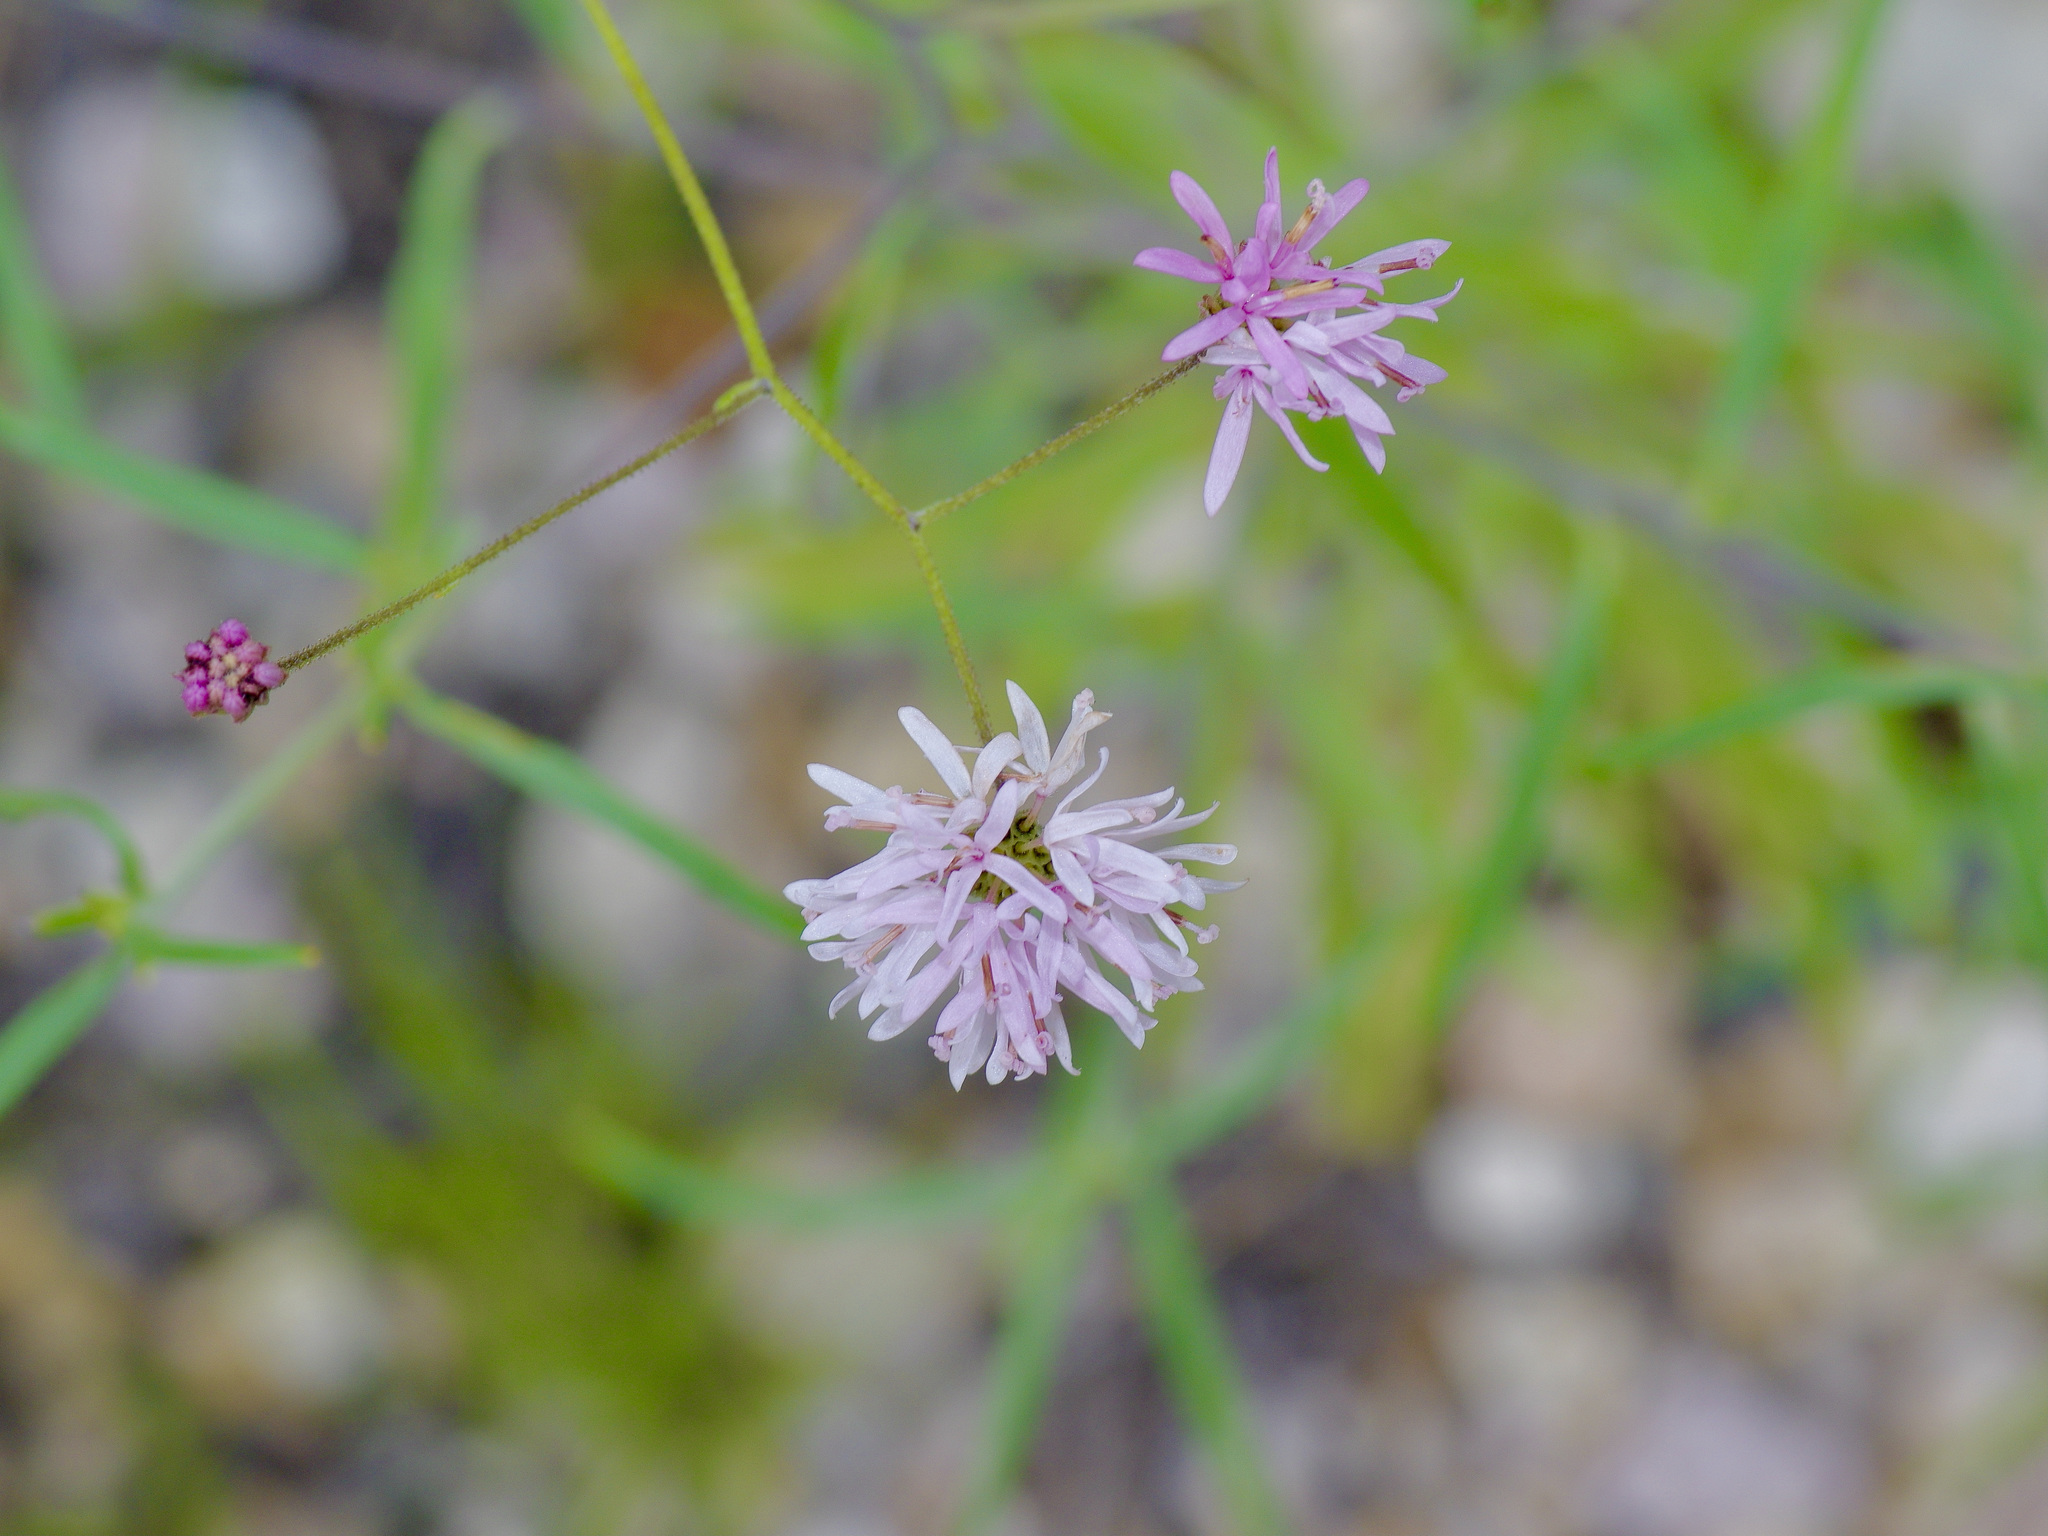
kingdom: Plantae
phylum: Tracheophyta
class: Magnoliopsida
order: Asterales
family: Asteraceae
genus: Palafoxia
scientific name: Palafoxia callosa
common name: Small palafox
